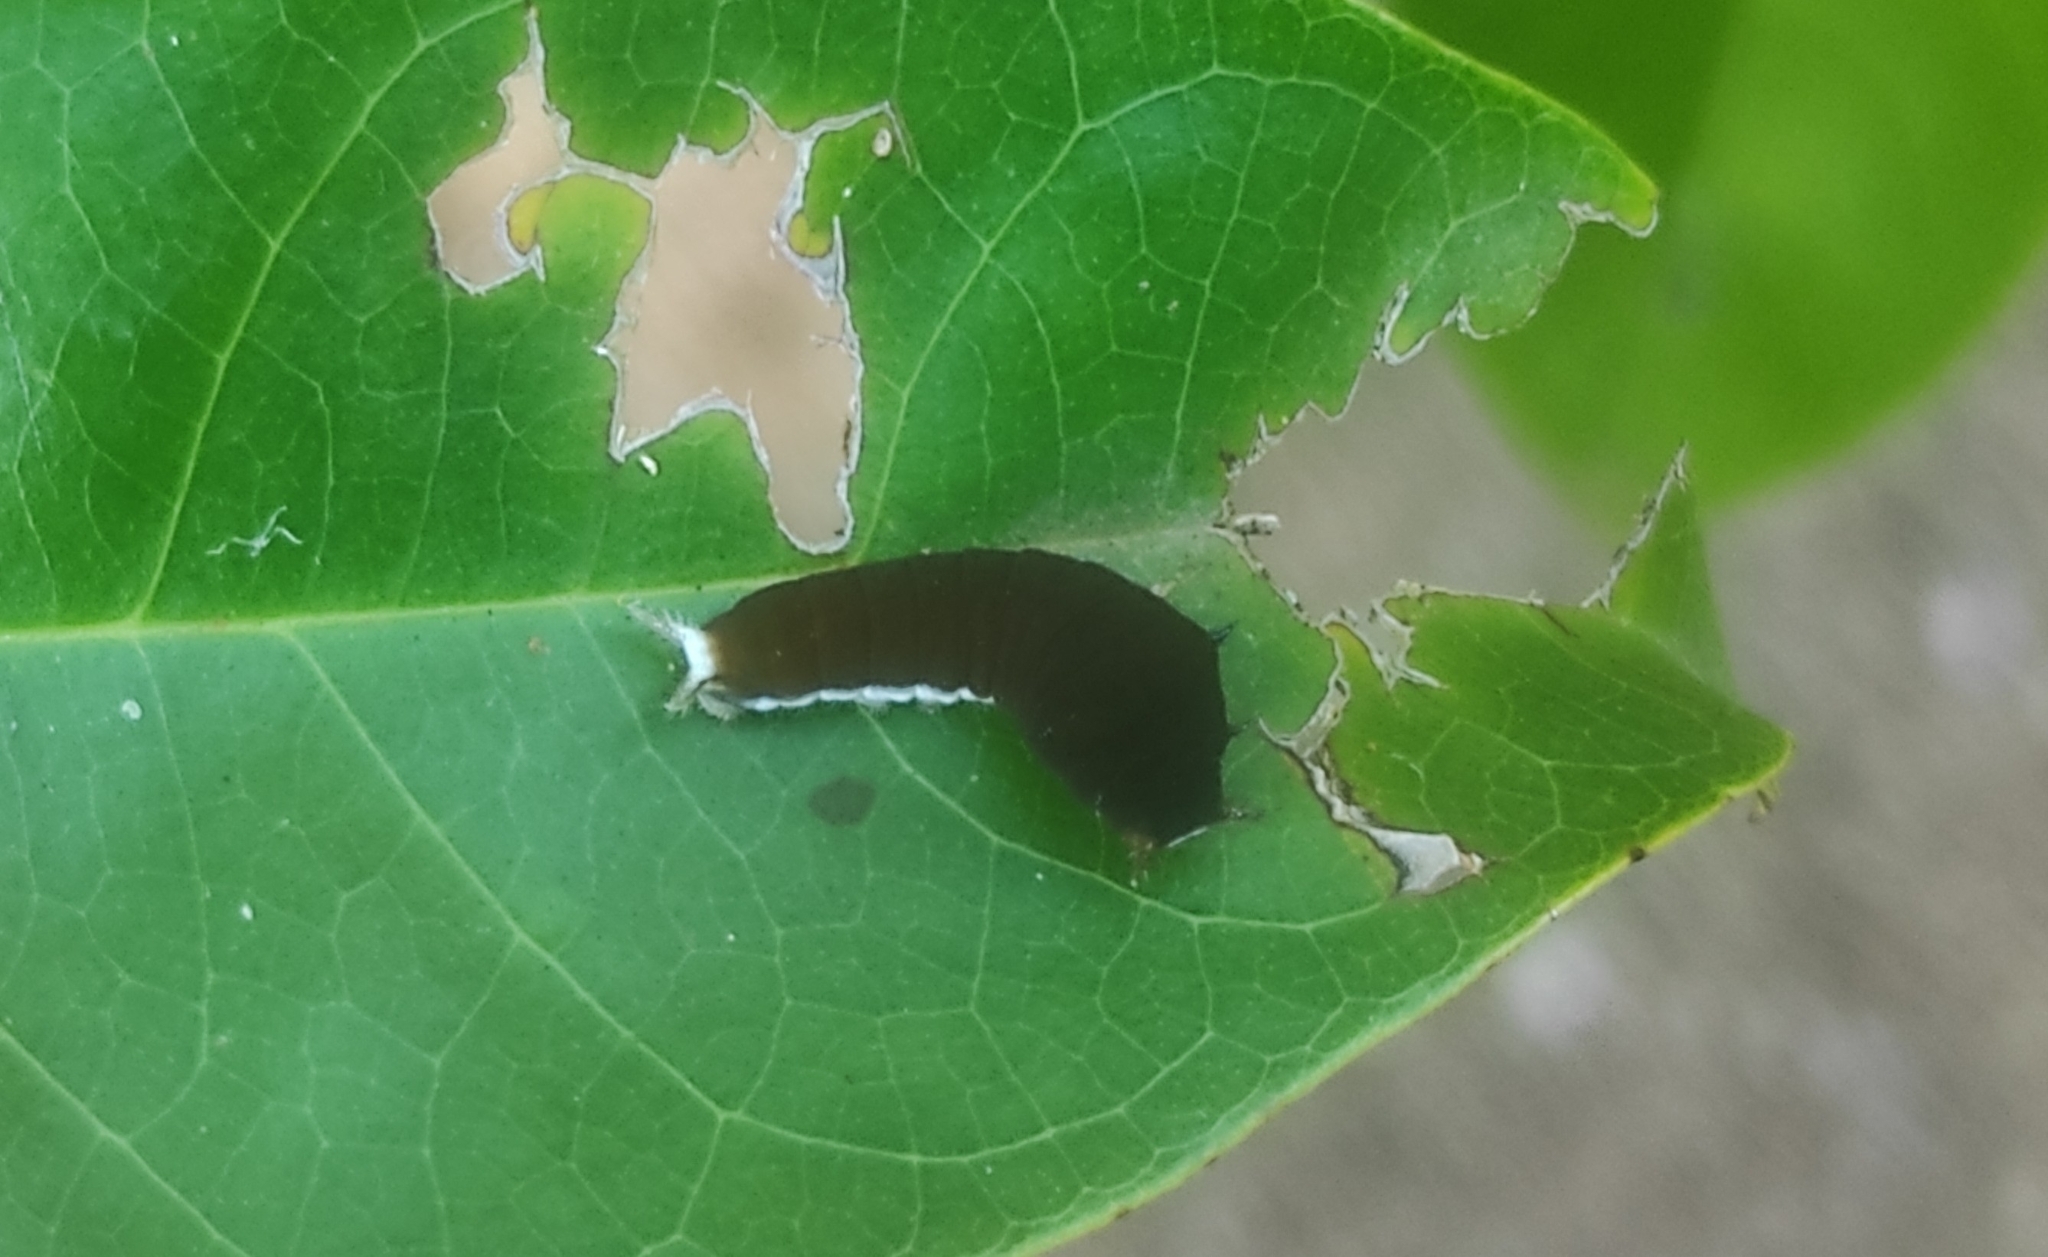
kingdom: Animalia
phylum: Arthropoda
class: Insecta
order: Lepidoptera
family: Papilionidae
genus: Graphium
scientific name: Graphium doson
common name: Common jay
